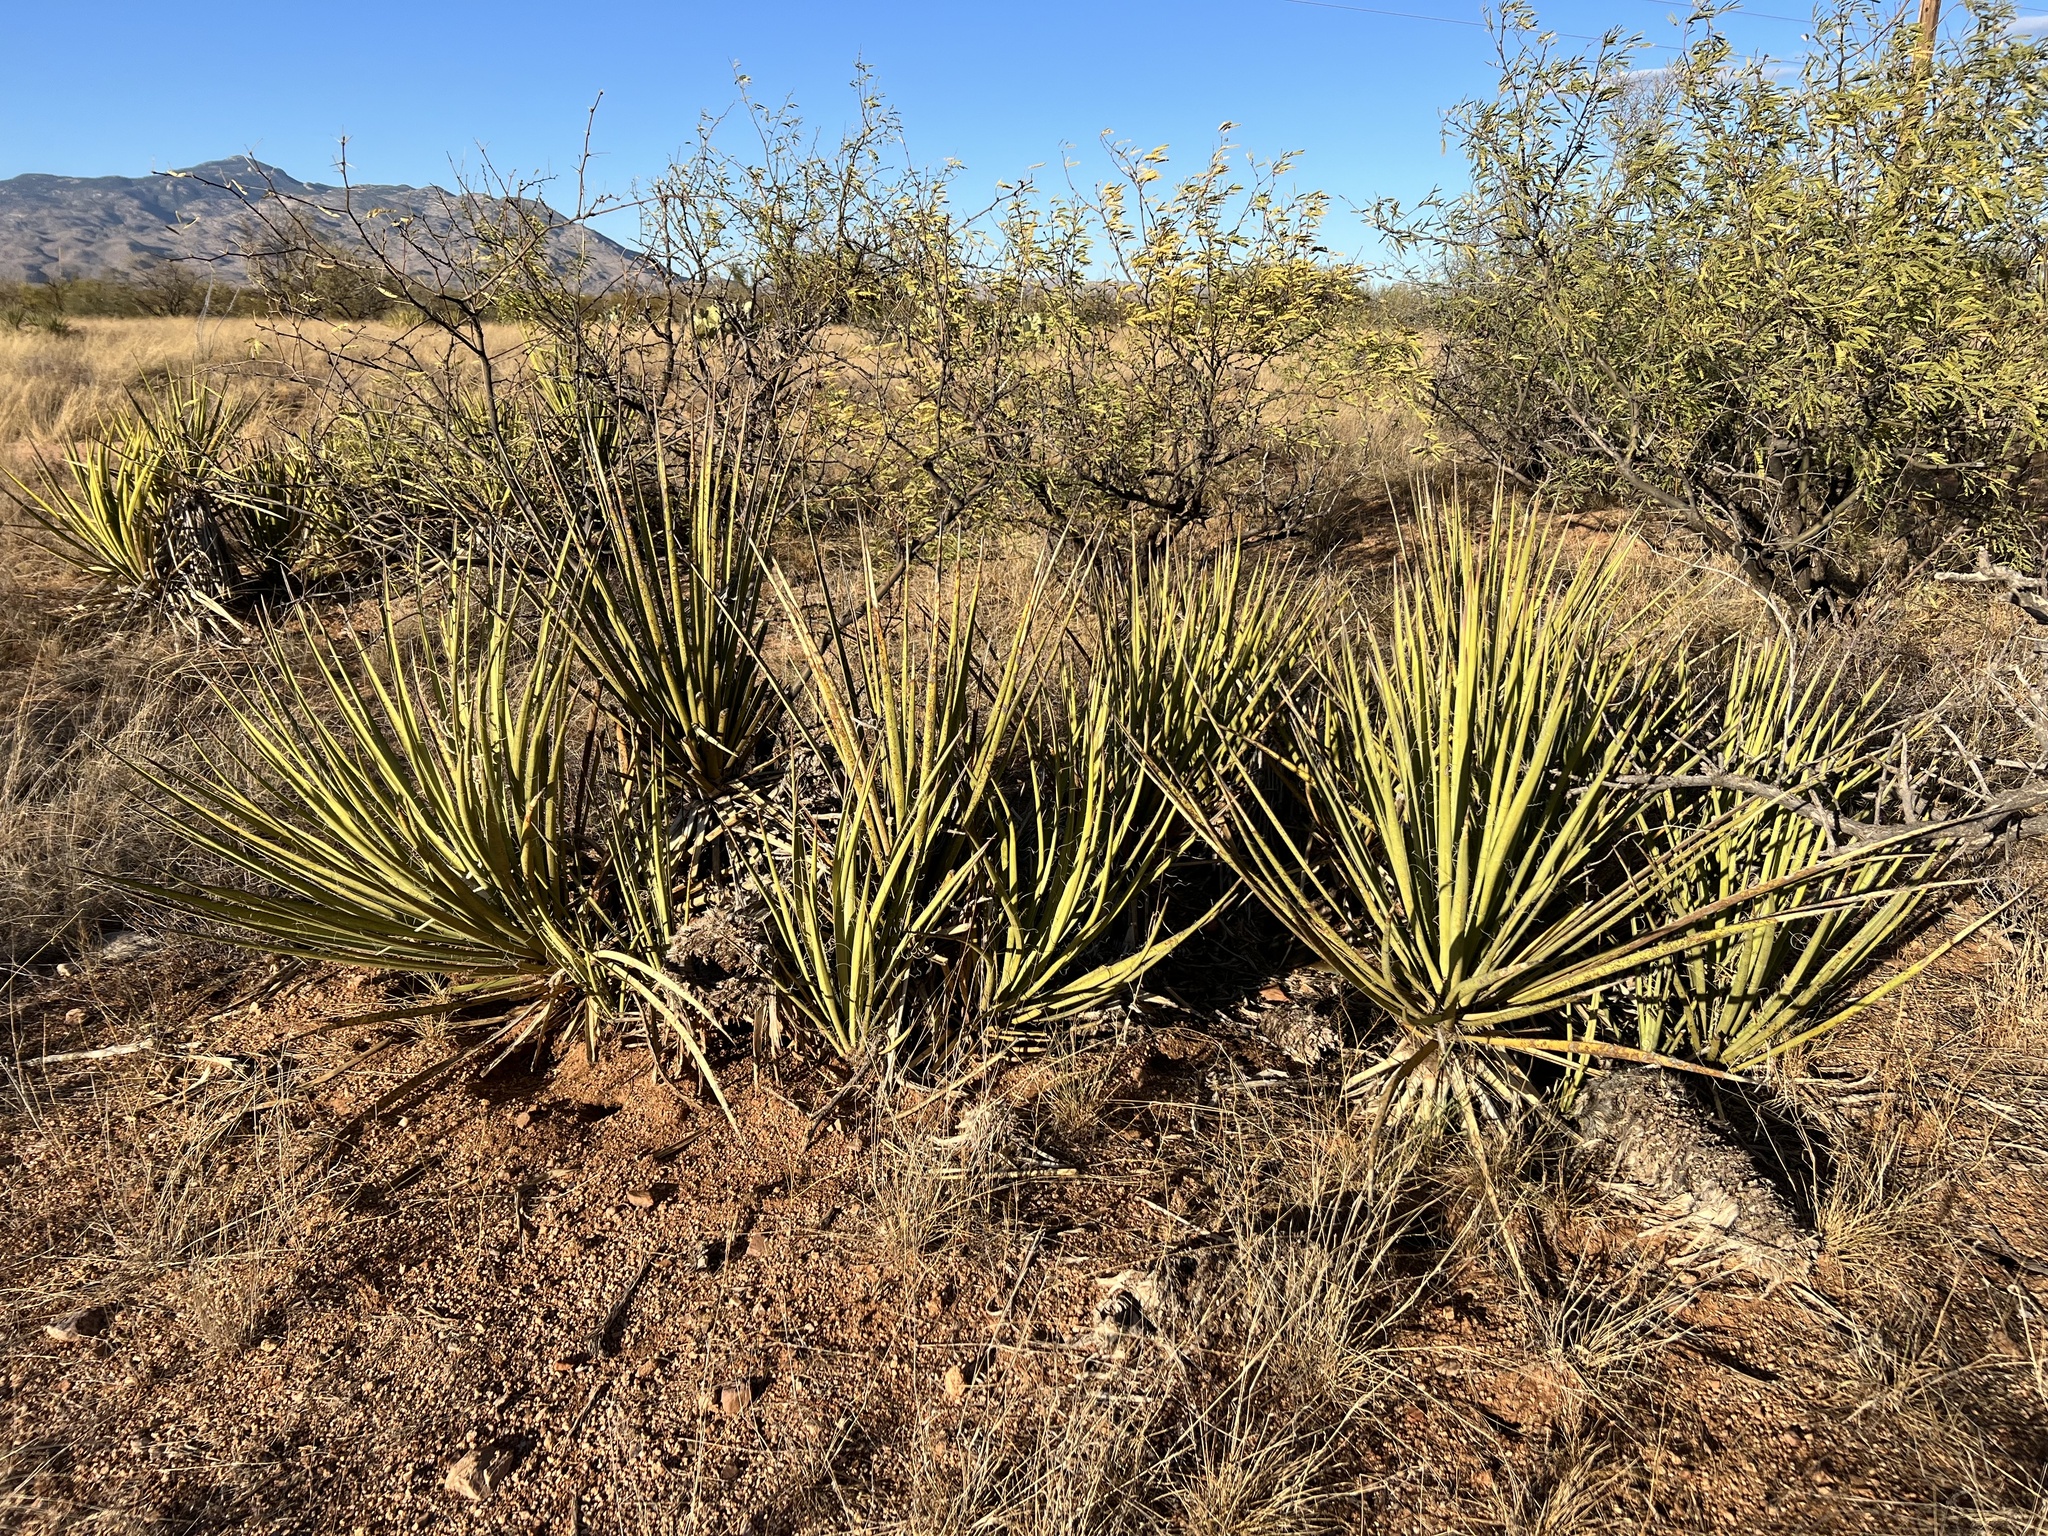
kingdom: Plantae
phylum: Tracheophyta
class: Liliopsida
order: Asparagales
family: Asparagaceae
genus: Yucca
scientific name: Yucca baccata
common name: Banana yucca
